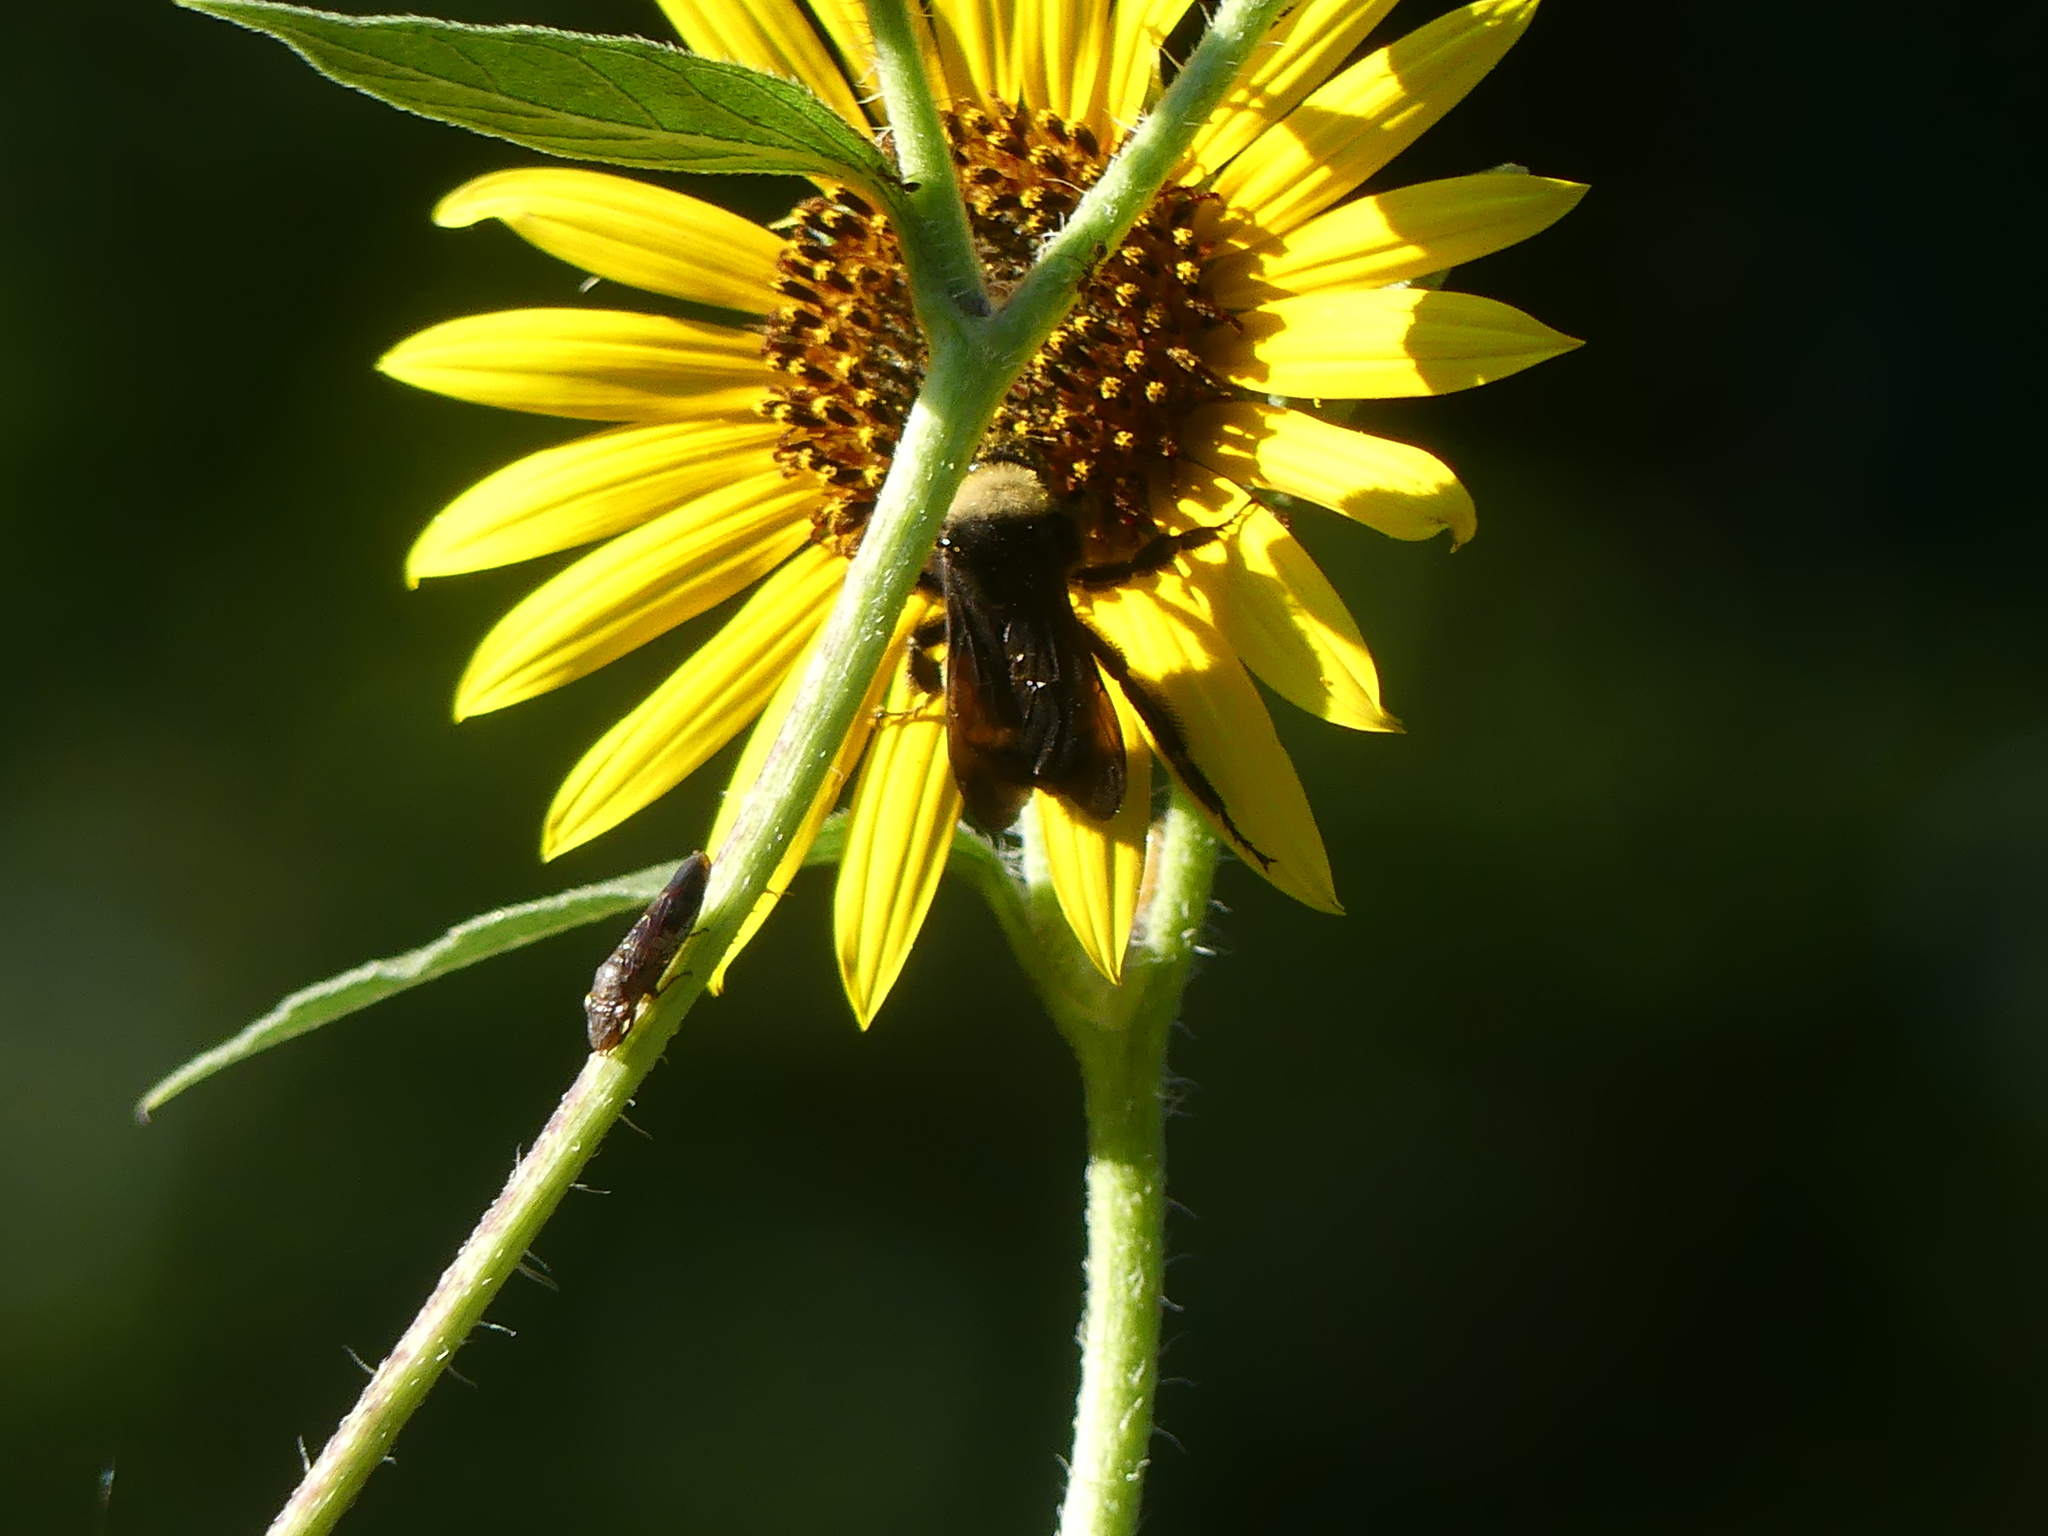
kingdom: Animalia
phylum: Arthropoda
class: Insecta
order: Hymenoptera
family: Apidae
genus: Bombus
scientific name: Bombus pensylvanicus
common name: Bumble bee
